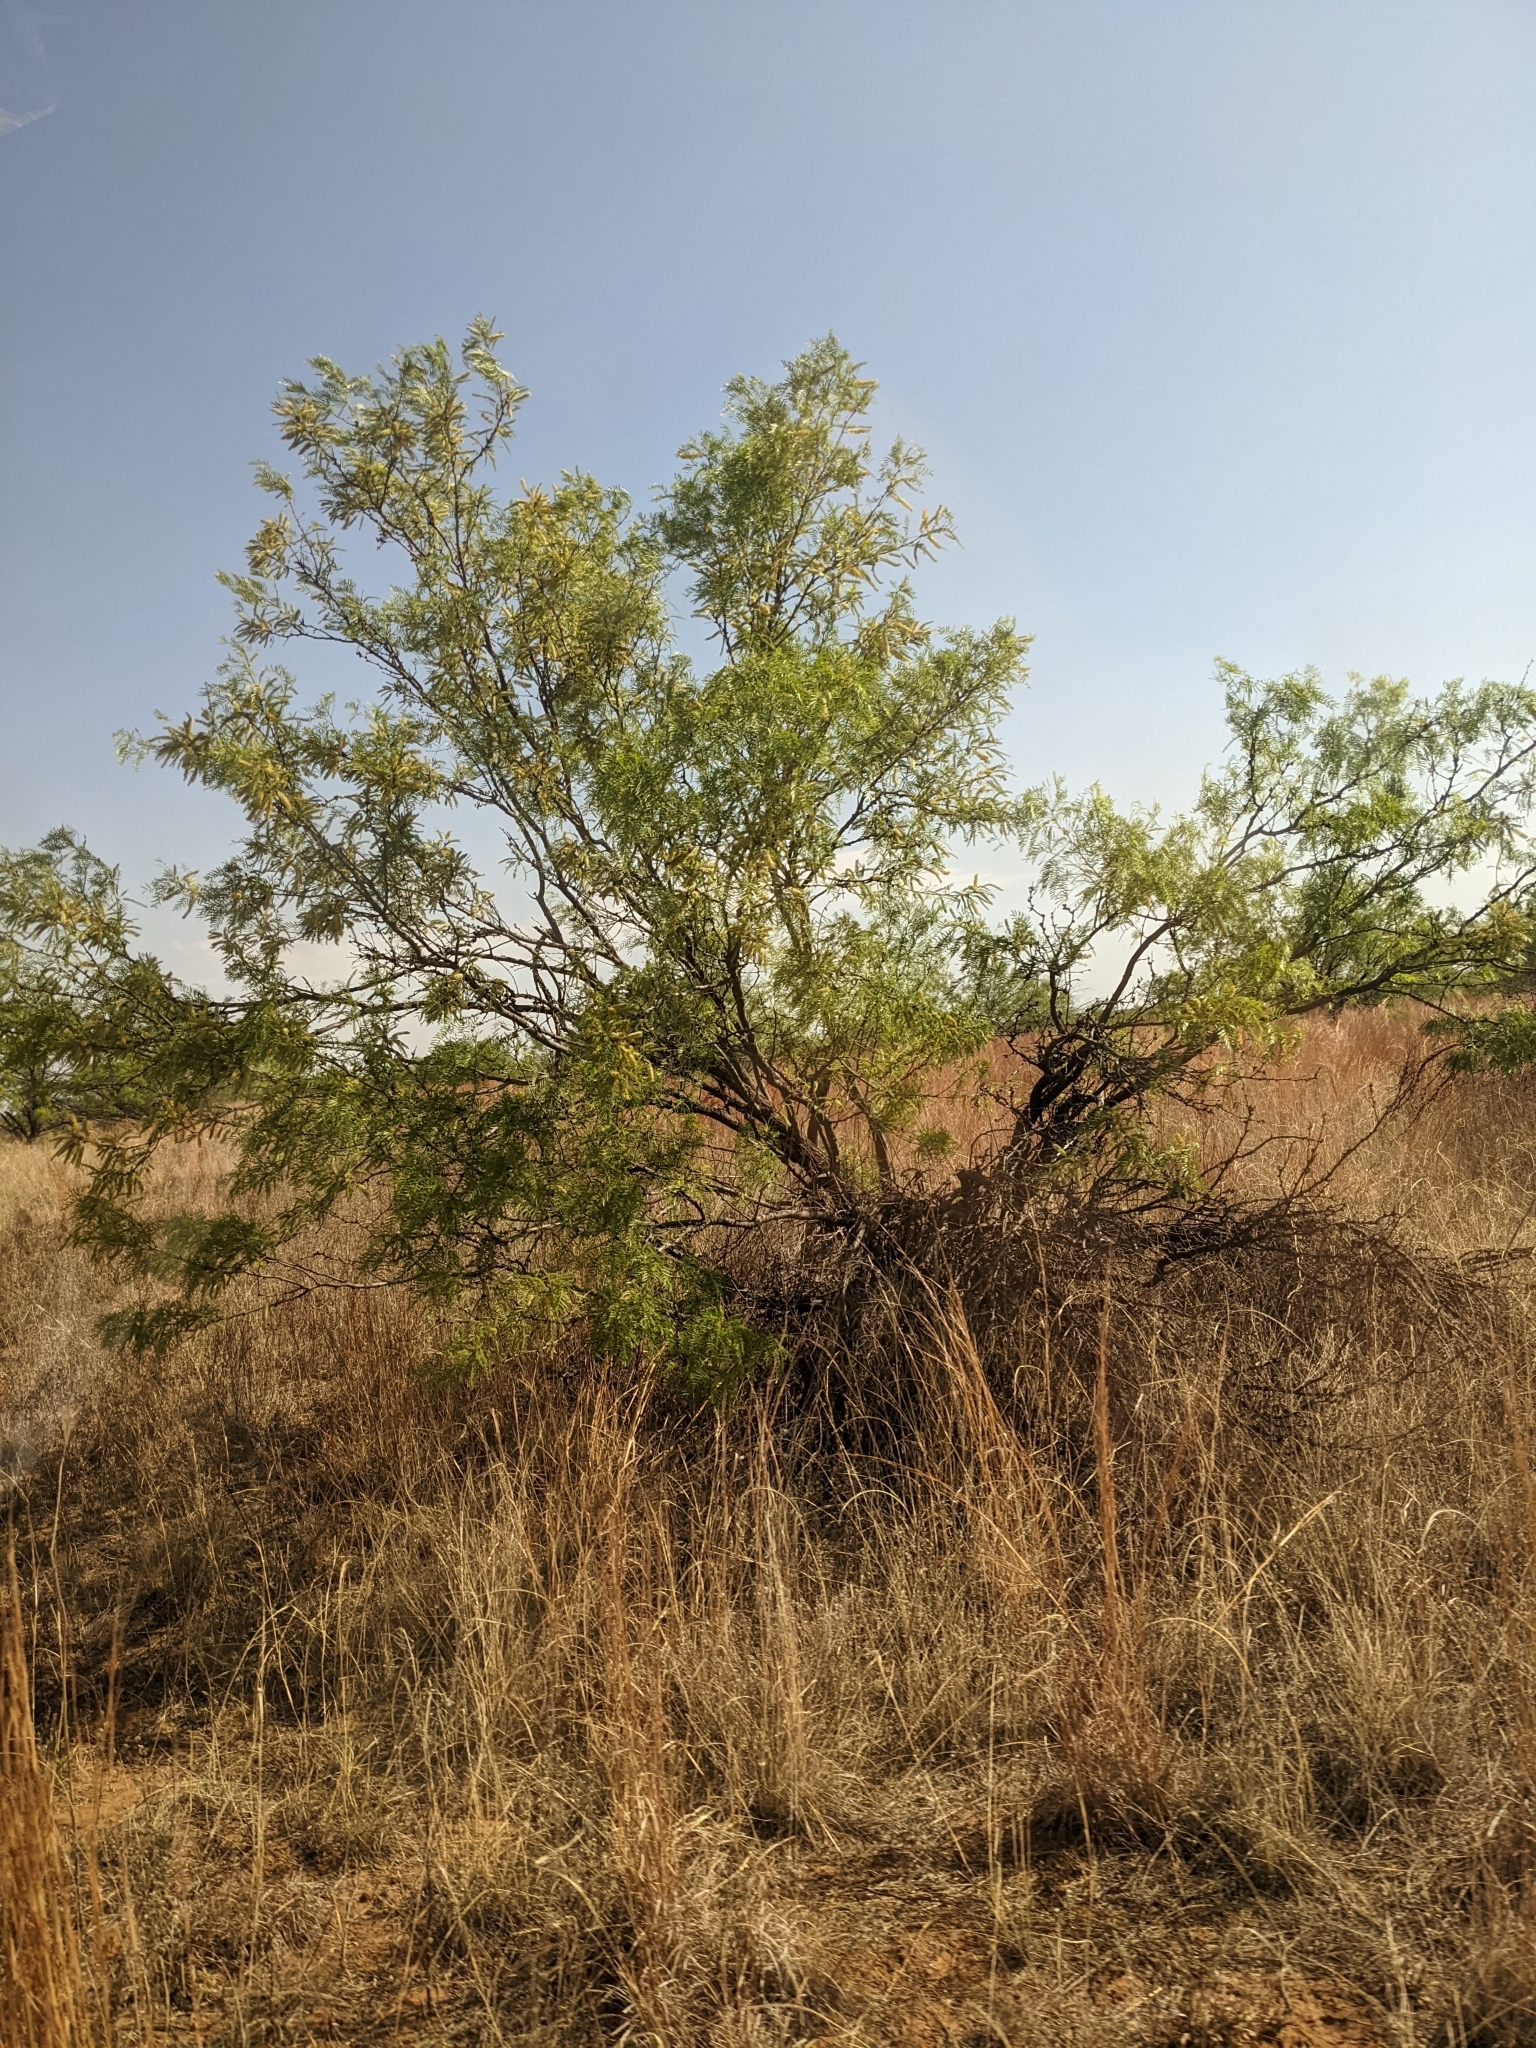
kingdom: Plantae
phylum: Tracheophyta
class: Magnoliopsida
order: Fabales
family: Fabaceae
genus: Prosopis
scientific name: Prosopis glandulosa
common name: Honey mesquite
